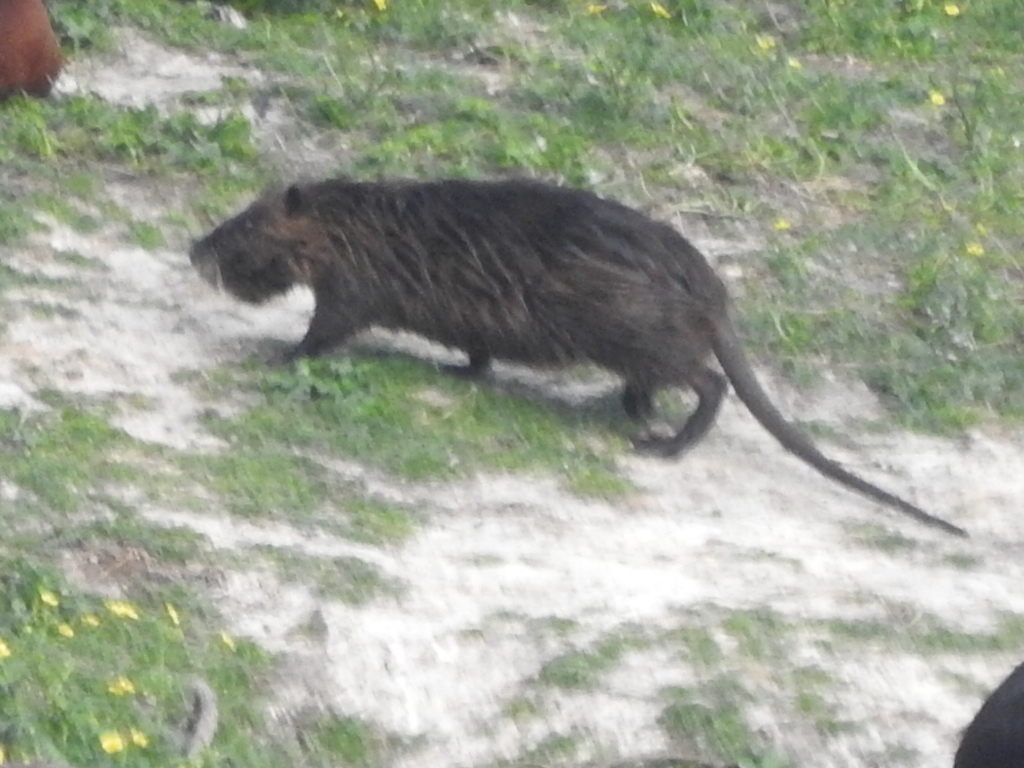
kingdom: Animalia
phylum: Chordata
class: Mammalia
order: Rodentia
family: Myocastoridae
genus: Myocastor
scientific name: Myocastor coypus
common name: Coypu
